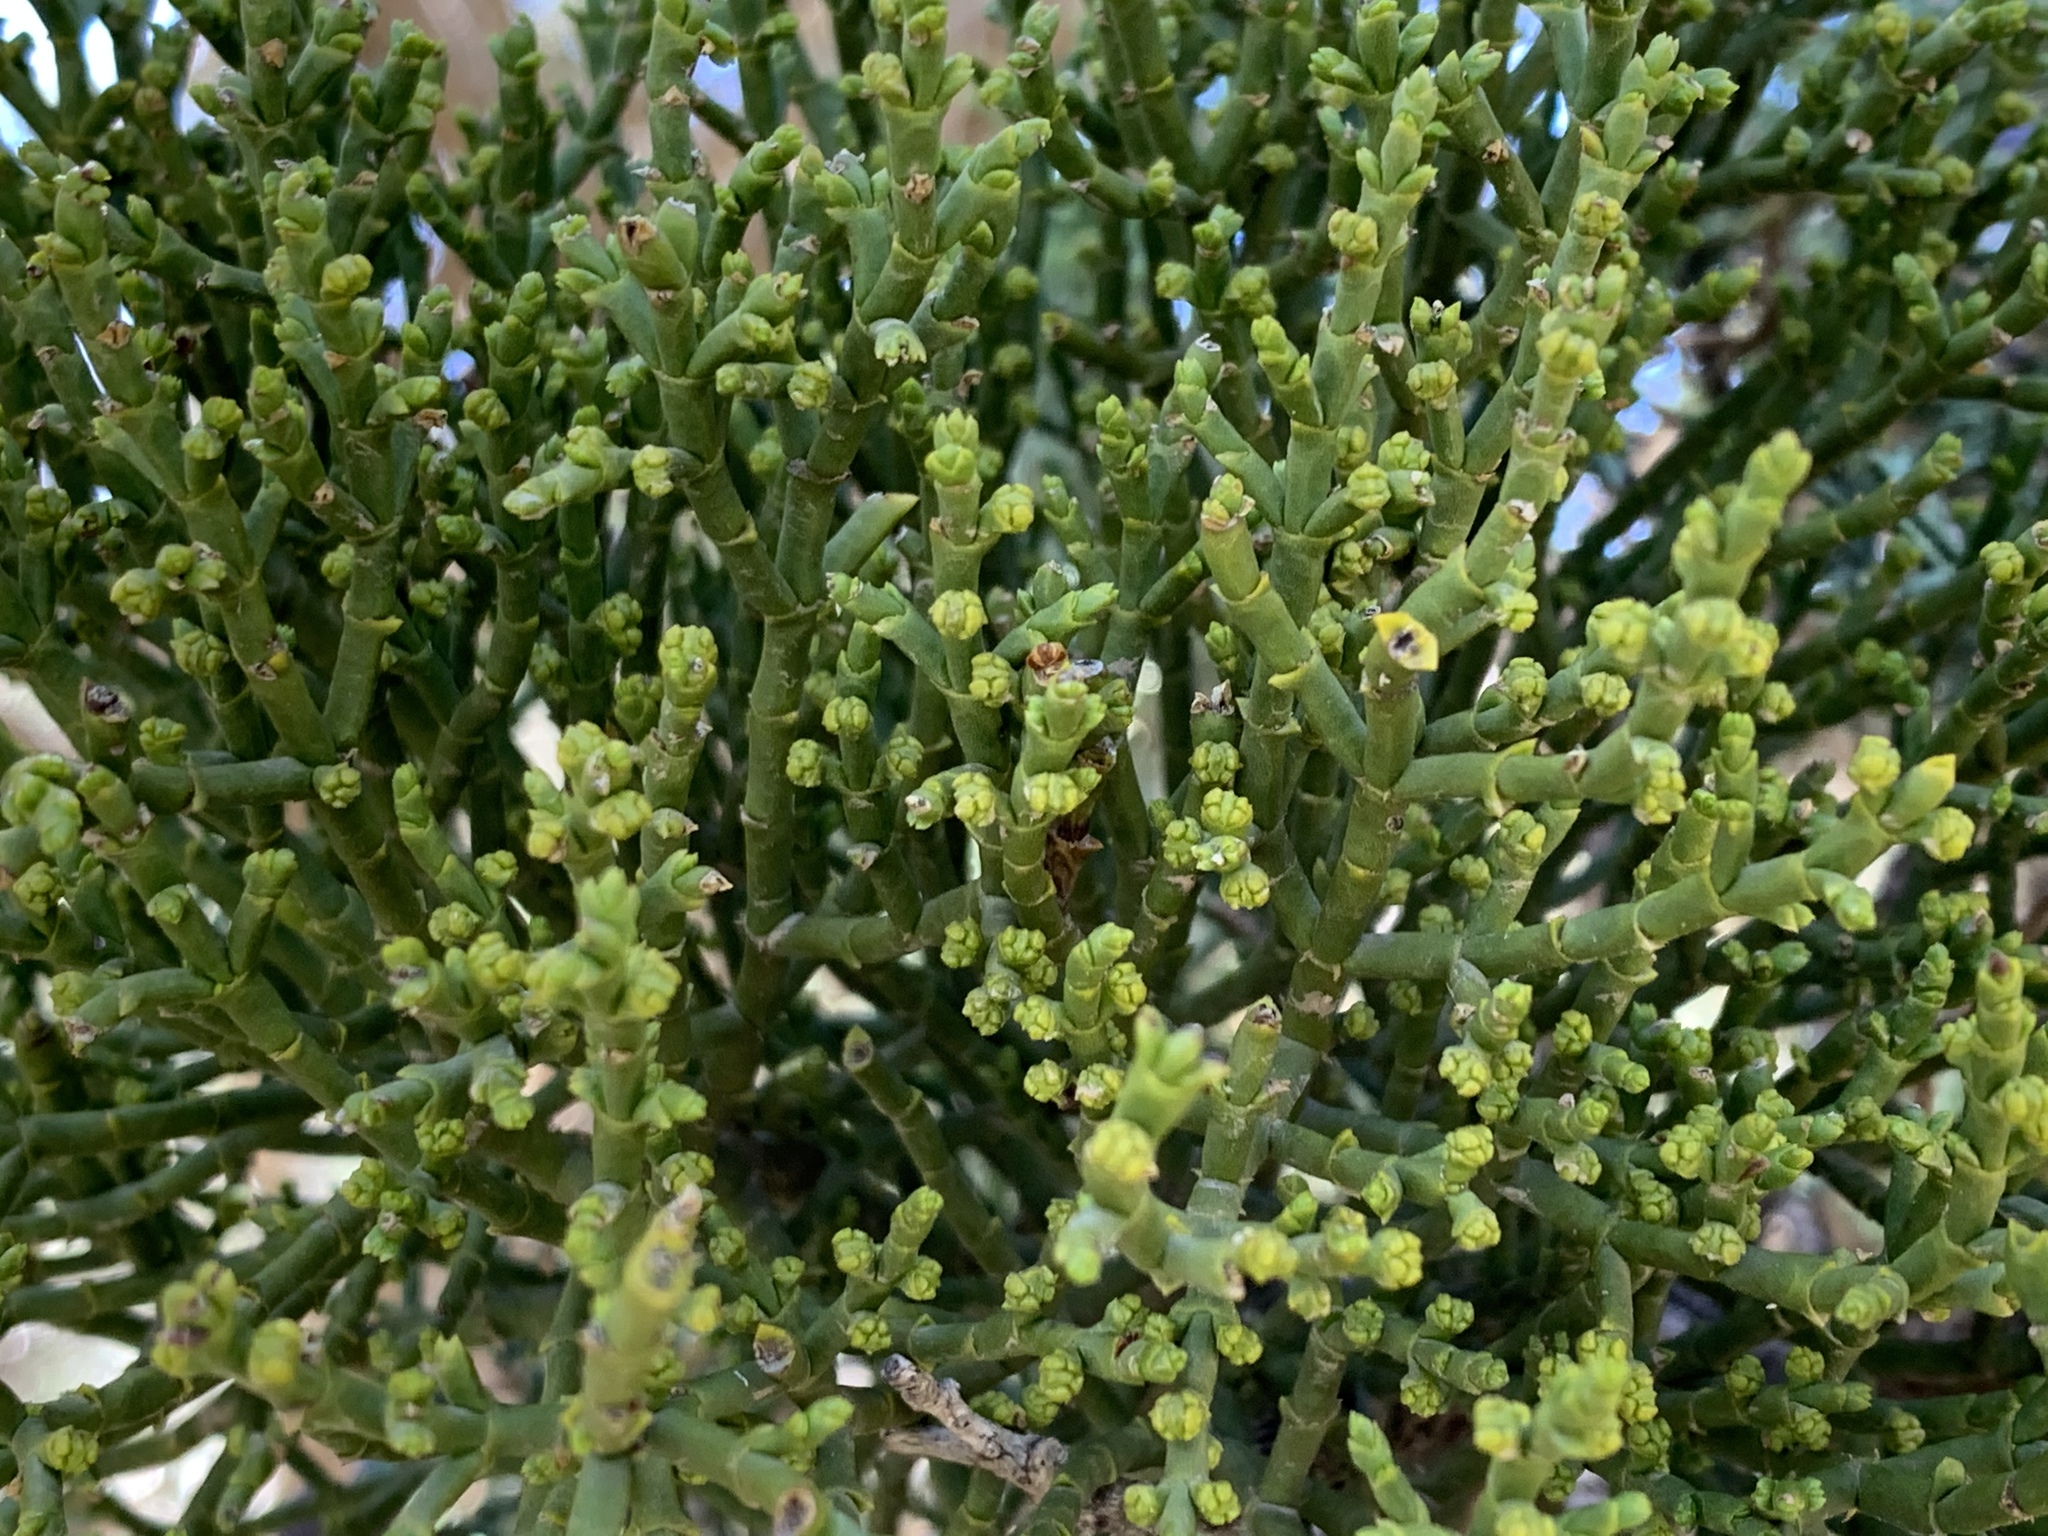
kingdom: Plantae
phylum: Tracheophyta
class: Magnoliopsida
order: Santalales
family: Viscaceae
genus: Phoradendron
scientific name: Phoradendron juniperinum
